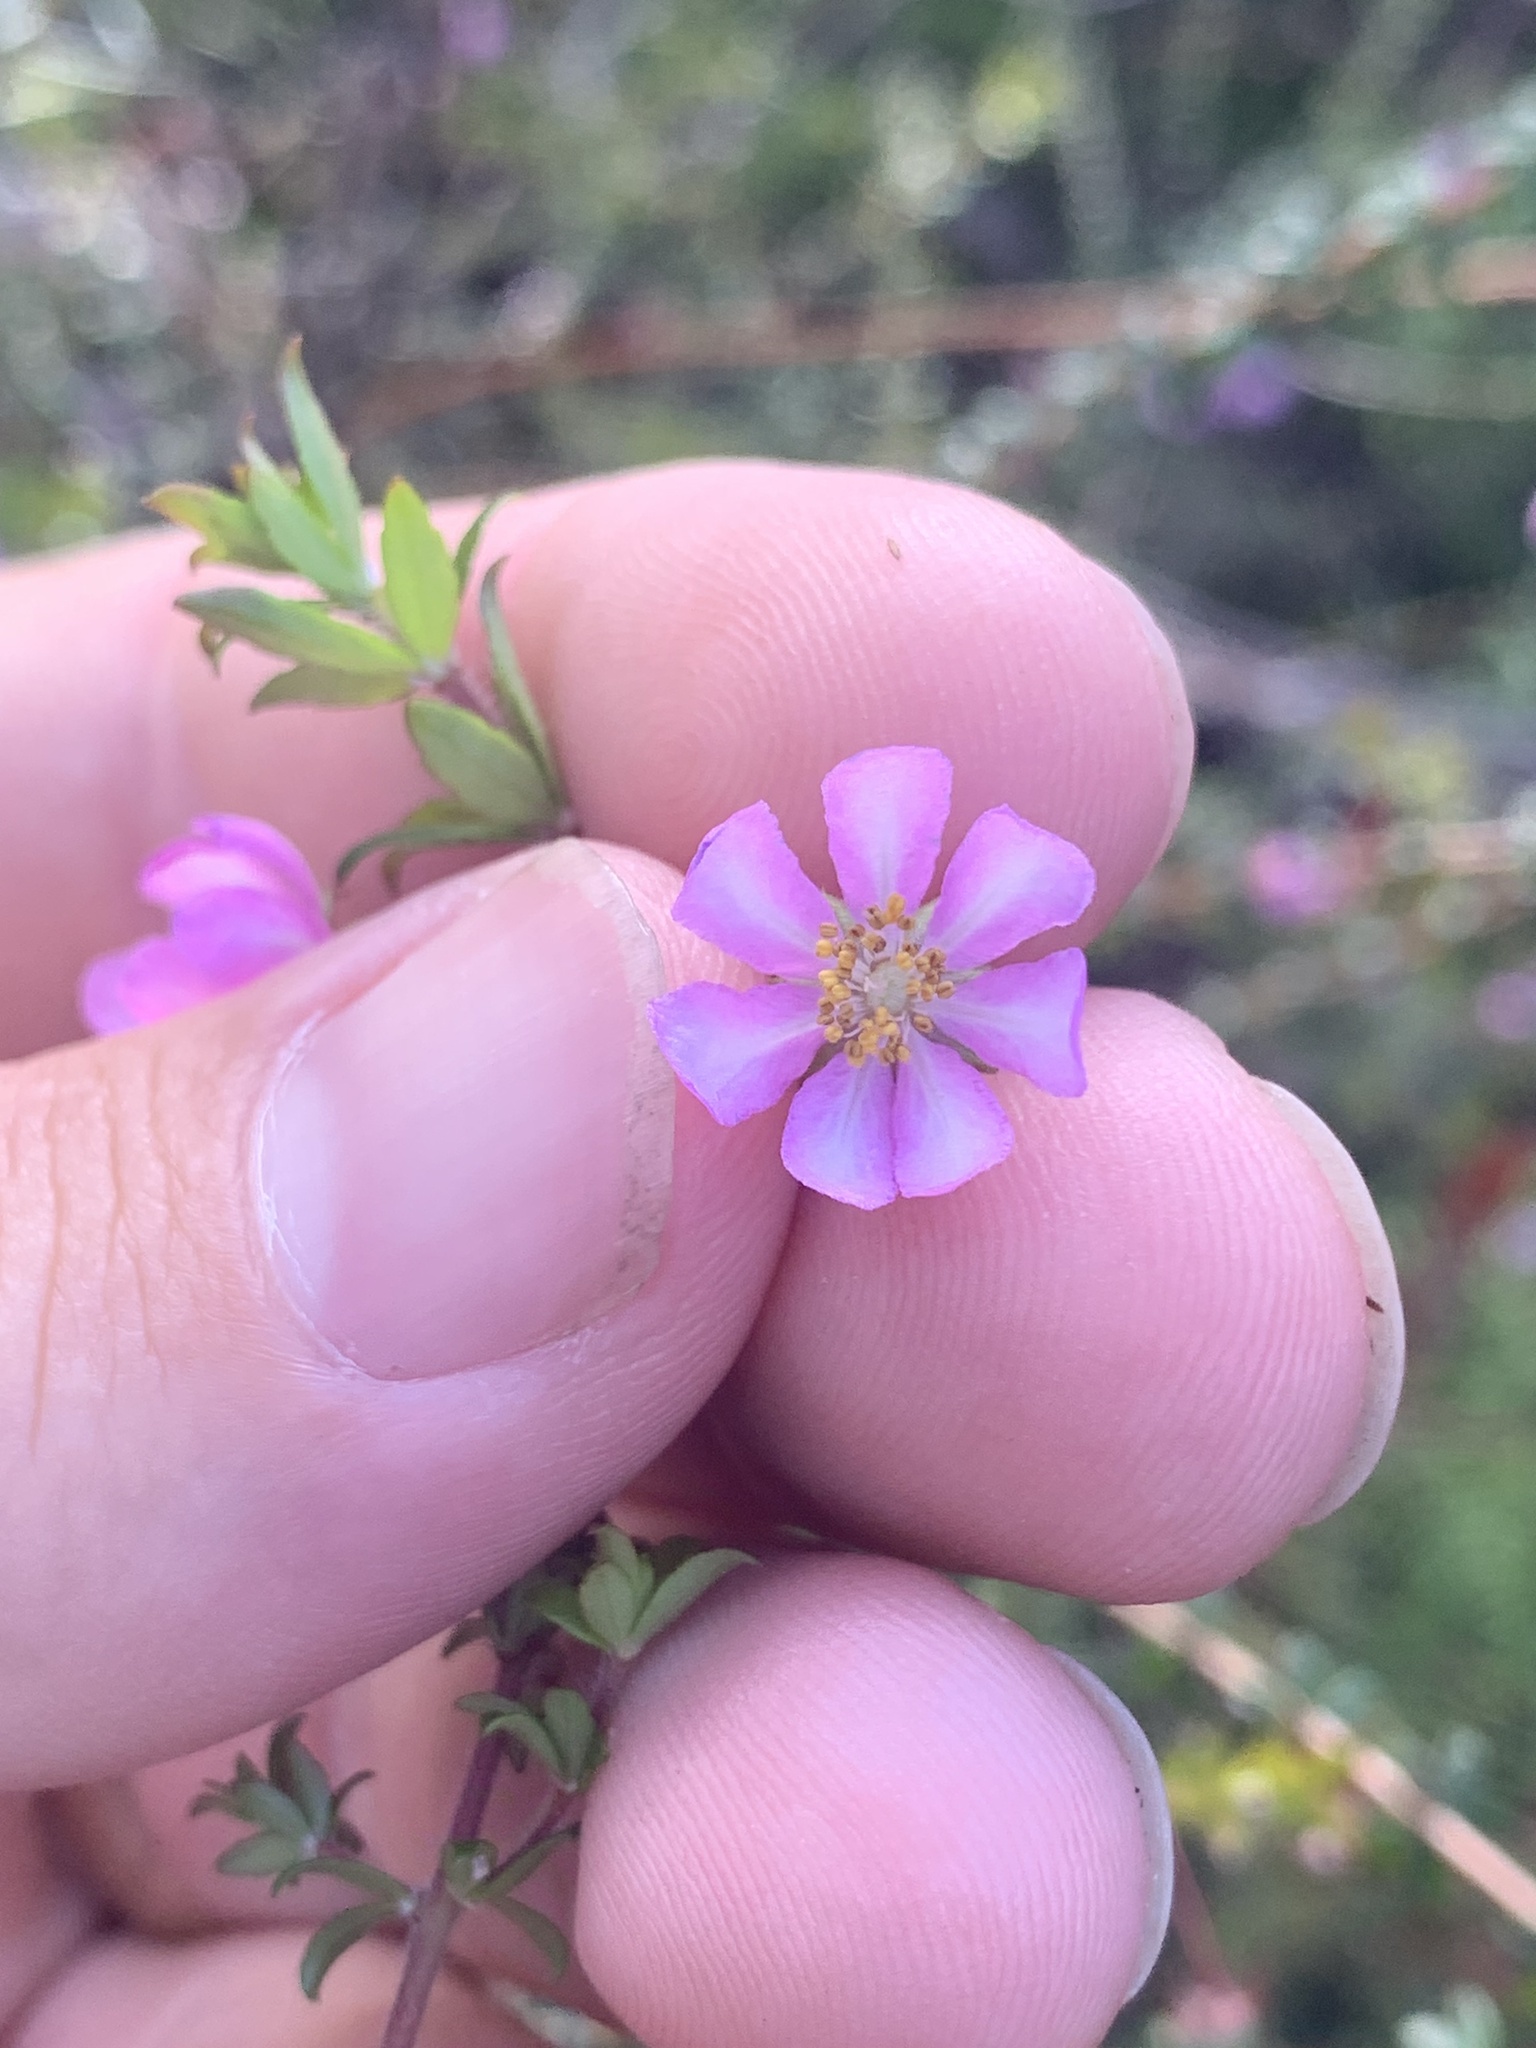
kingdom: Plantae
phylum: Tracheophyta
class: Magnoliopsida
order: Oxalidales
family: Cunoniaceae
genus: Bauera
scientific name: Bauera rubioides
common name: River-rose
